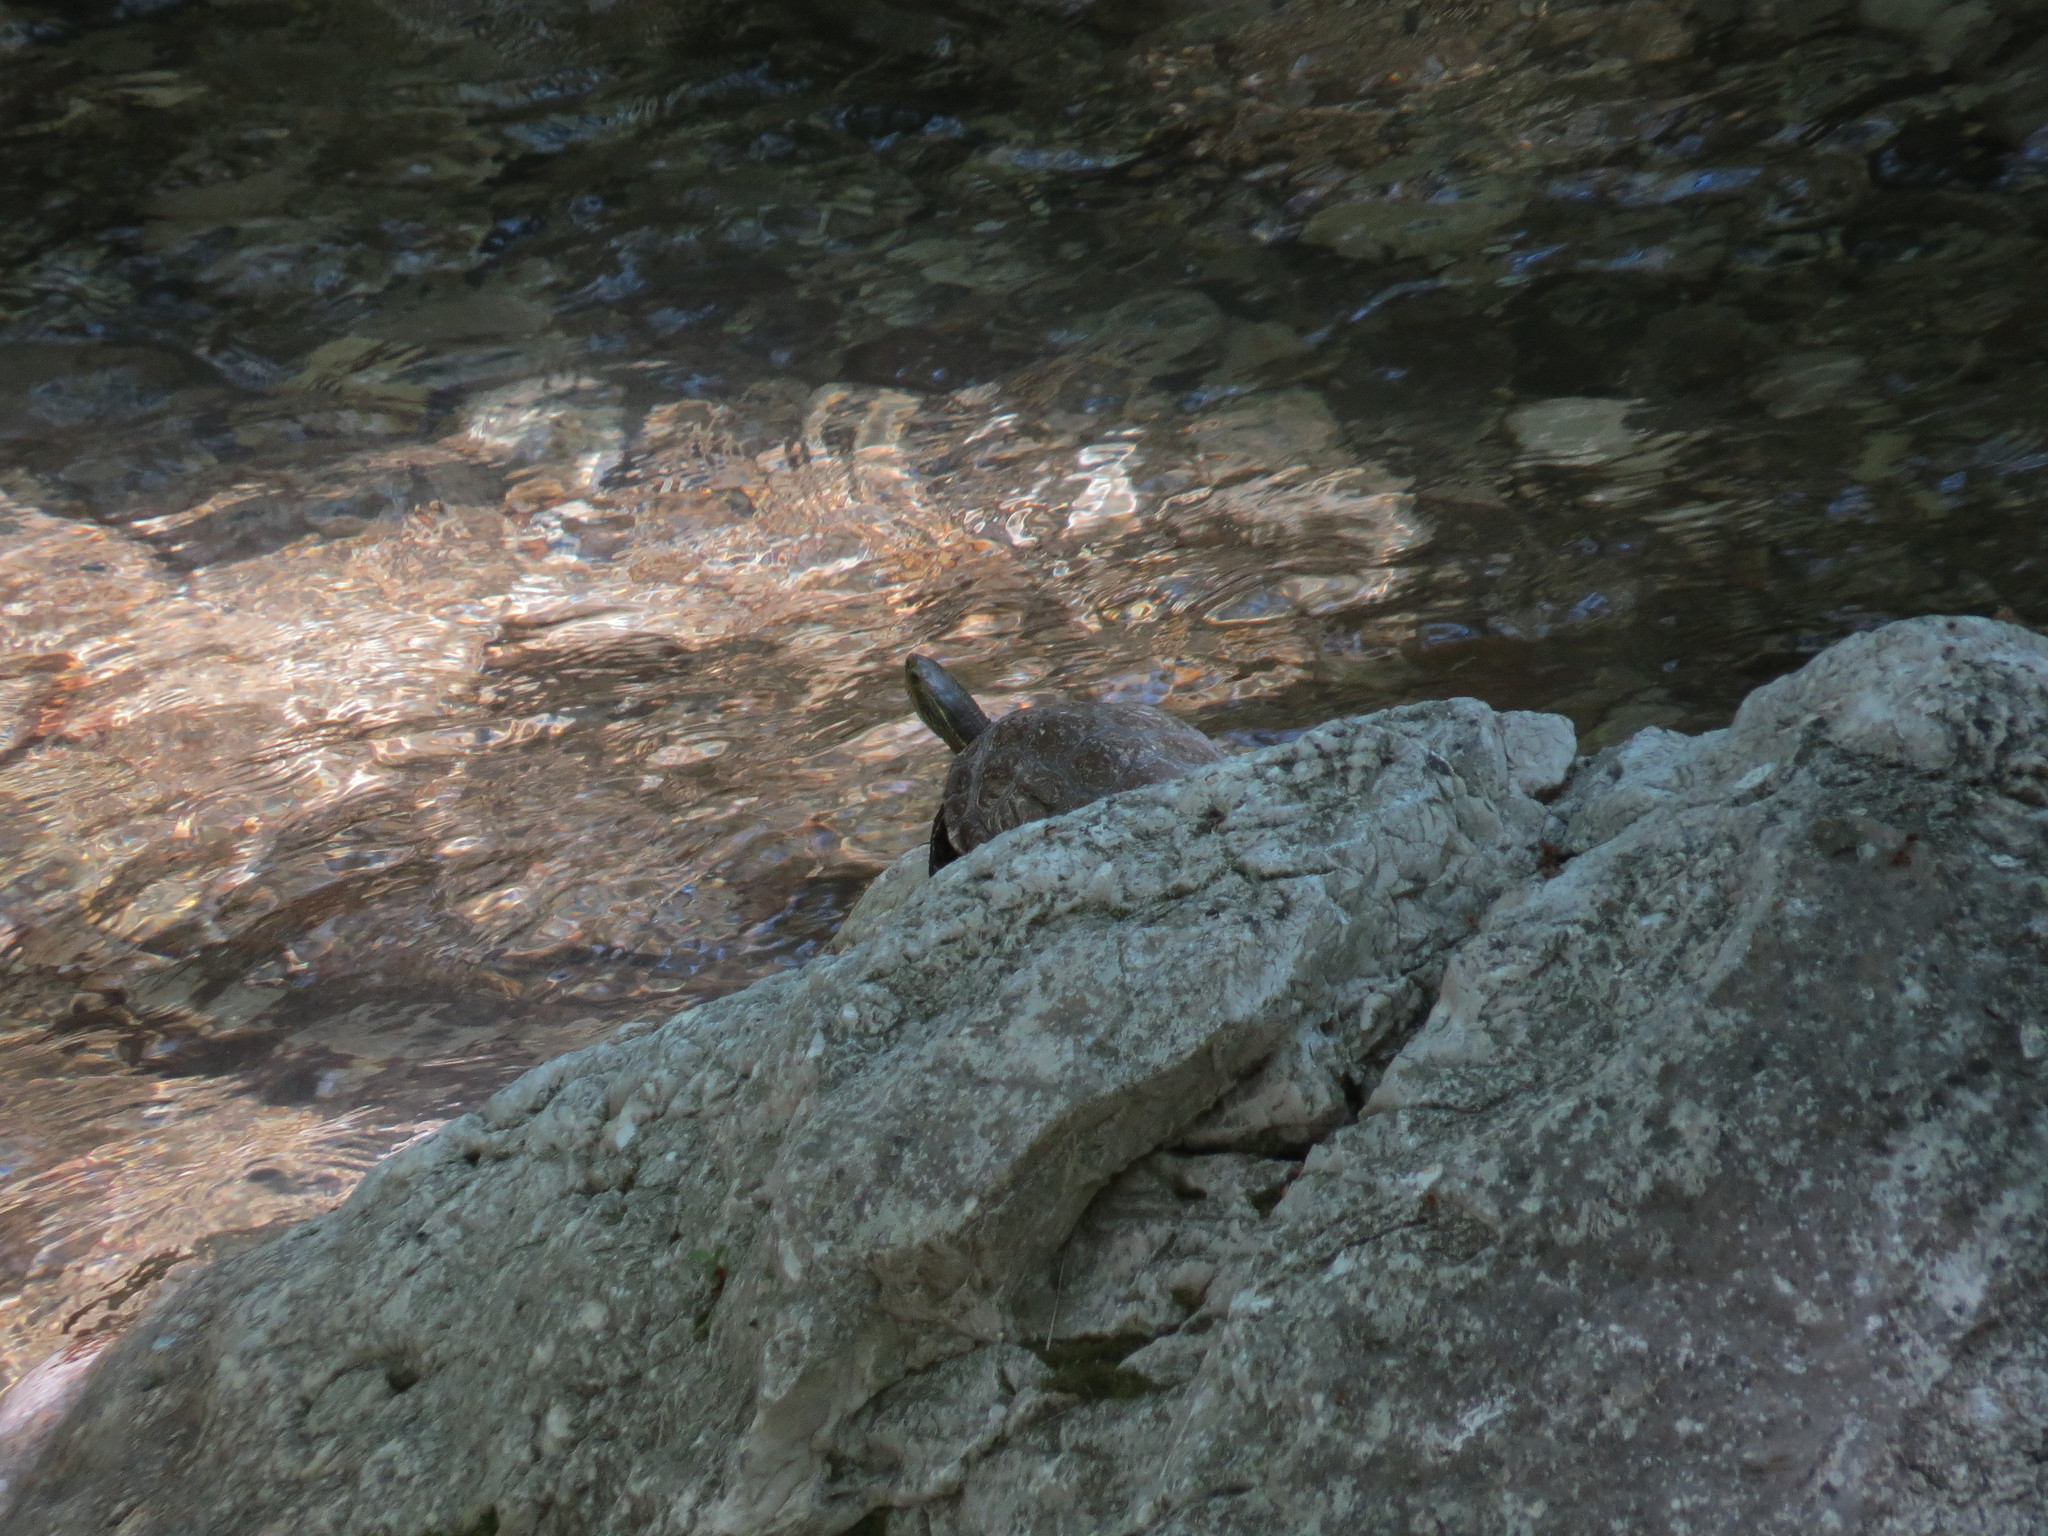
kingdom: Animalia
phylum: Chordata
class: Testudines
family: Geoemydidae
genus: Mauremys
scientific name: Mauremys rivulata
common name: Western caspian turtle
